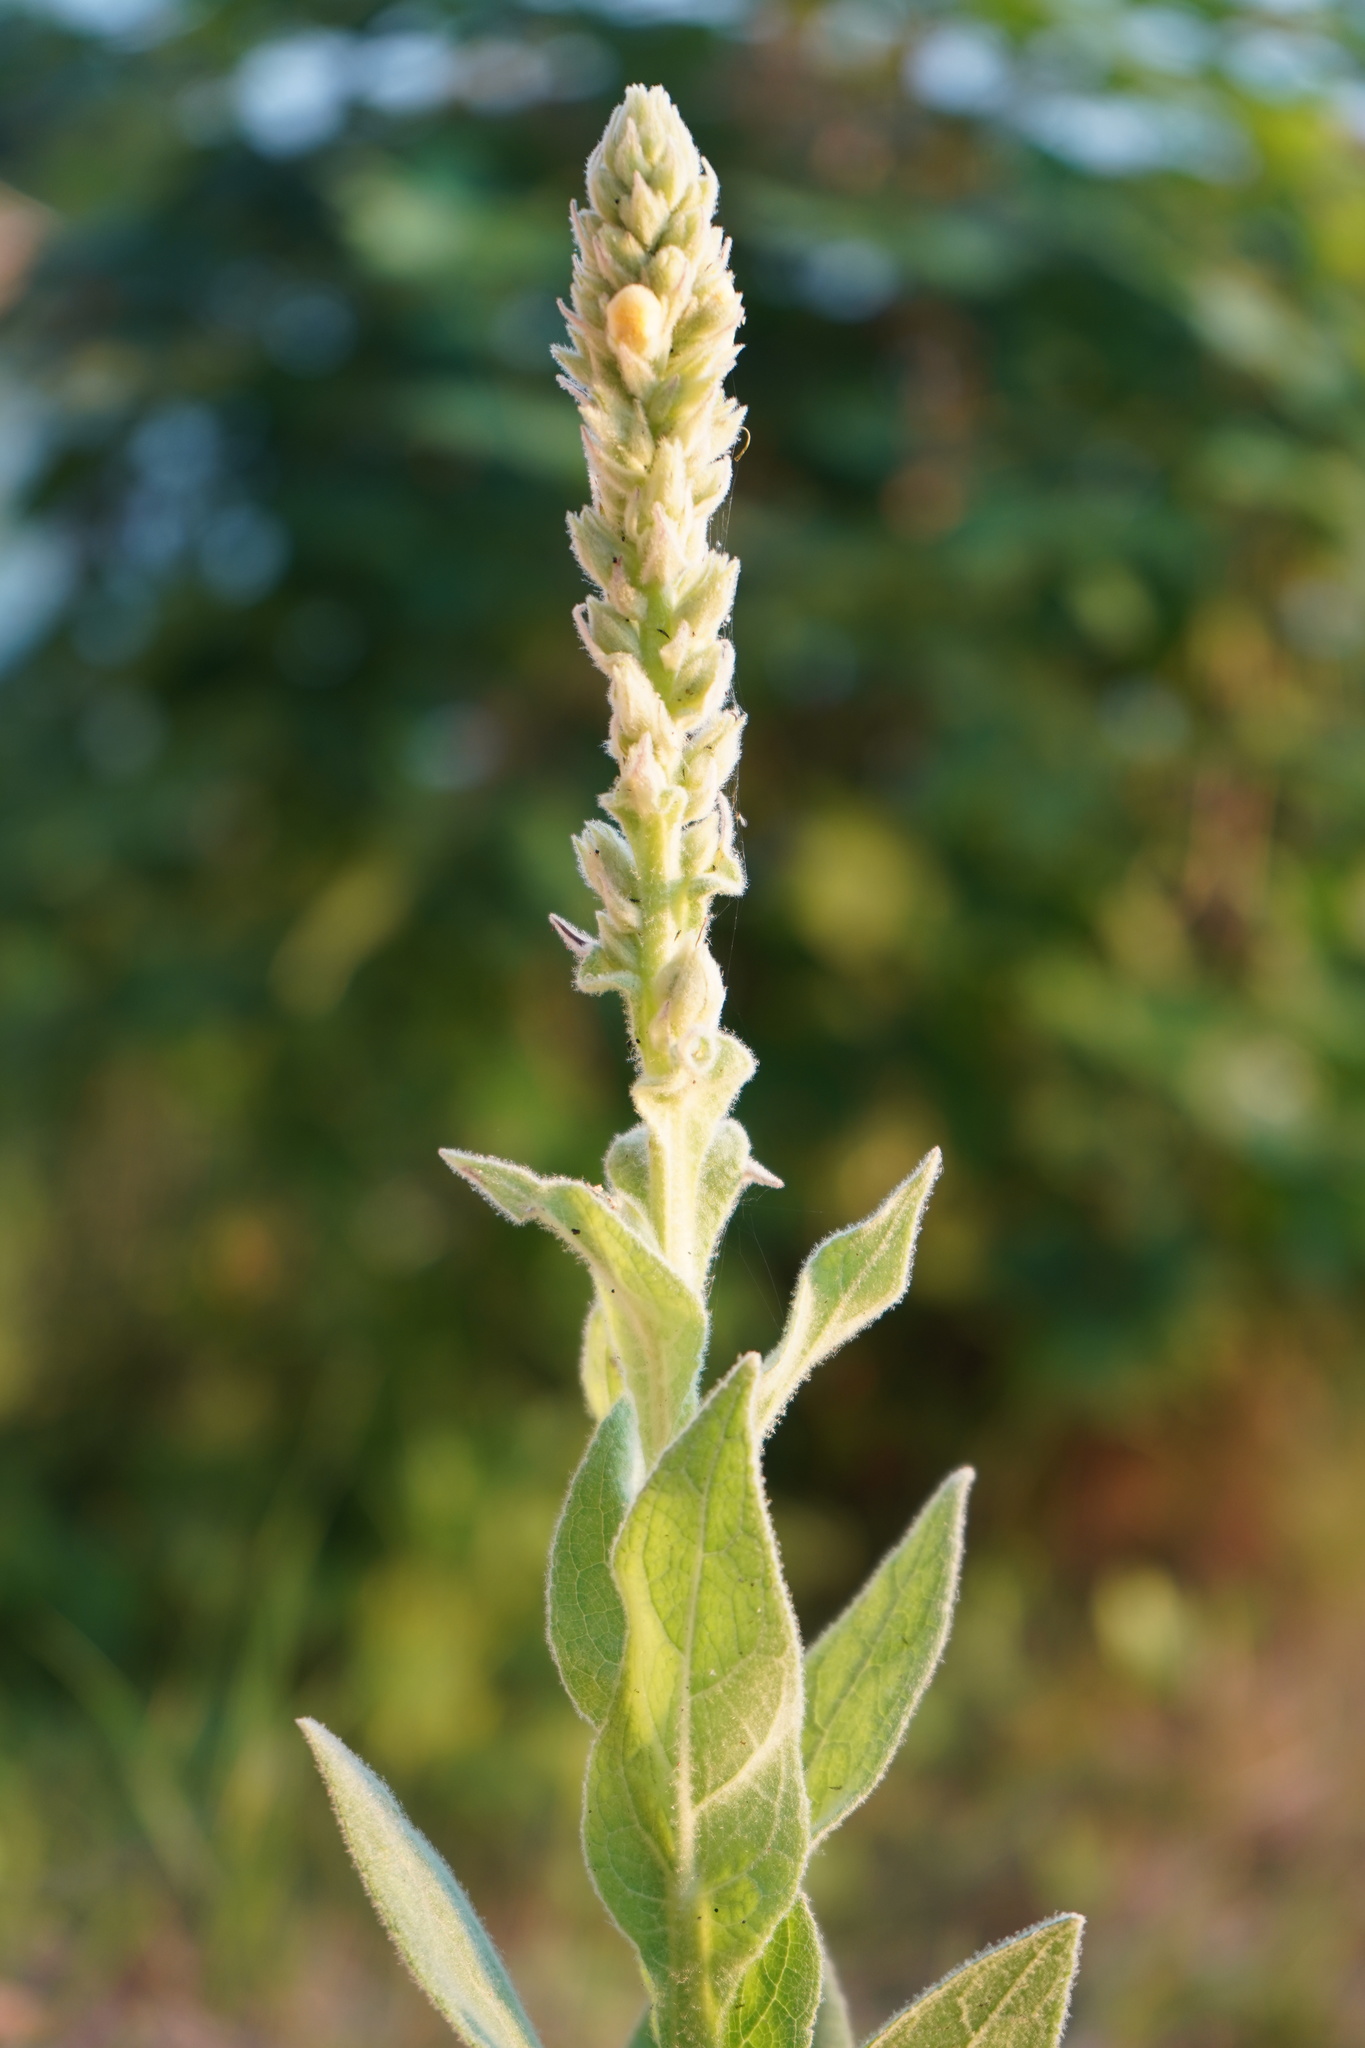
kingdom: Plantae
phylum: Tracheophyta
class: Magnoliopsida
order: Lamiales
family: Scrophulariaceae
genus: Verbascum
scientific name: Verbascum thapsus
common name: Common mullein
